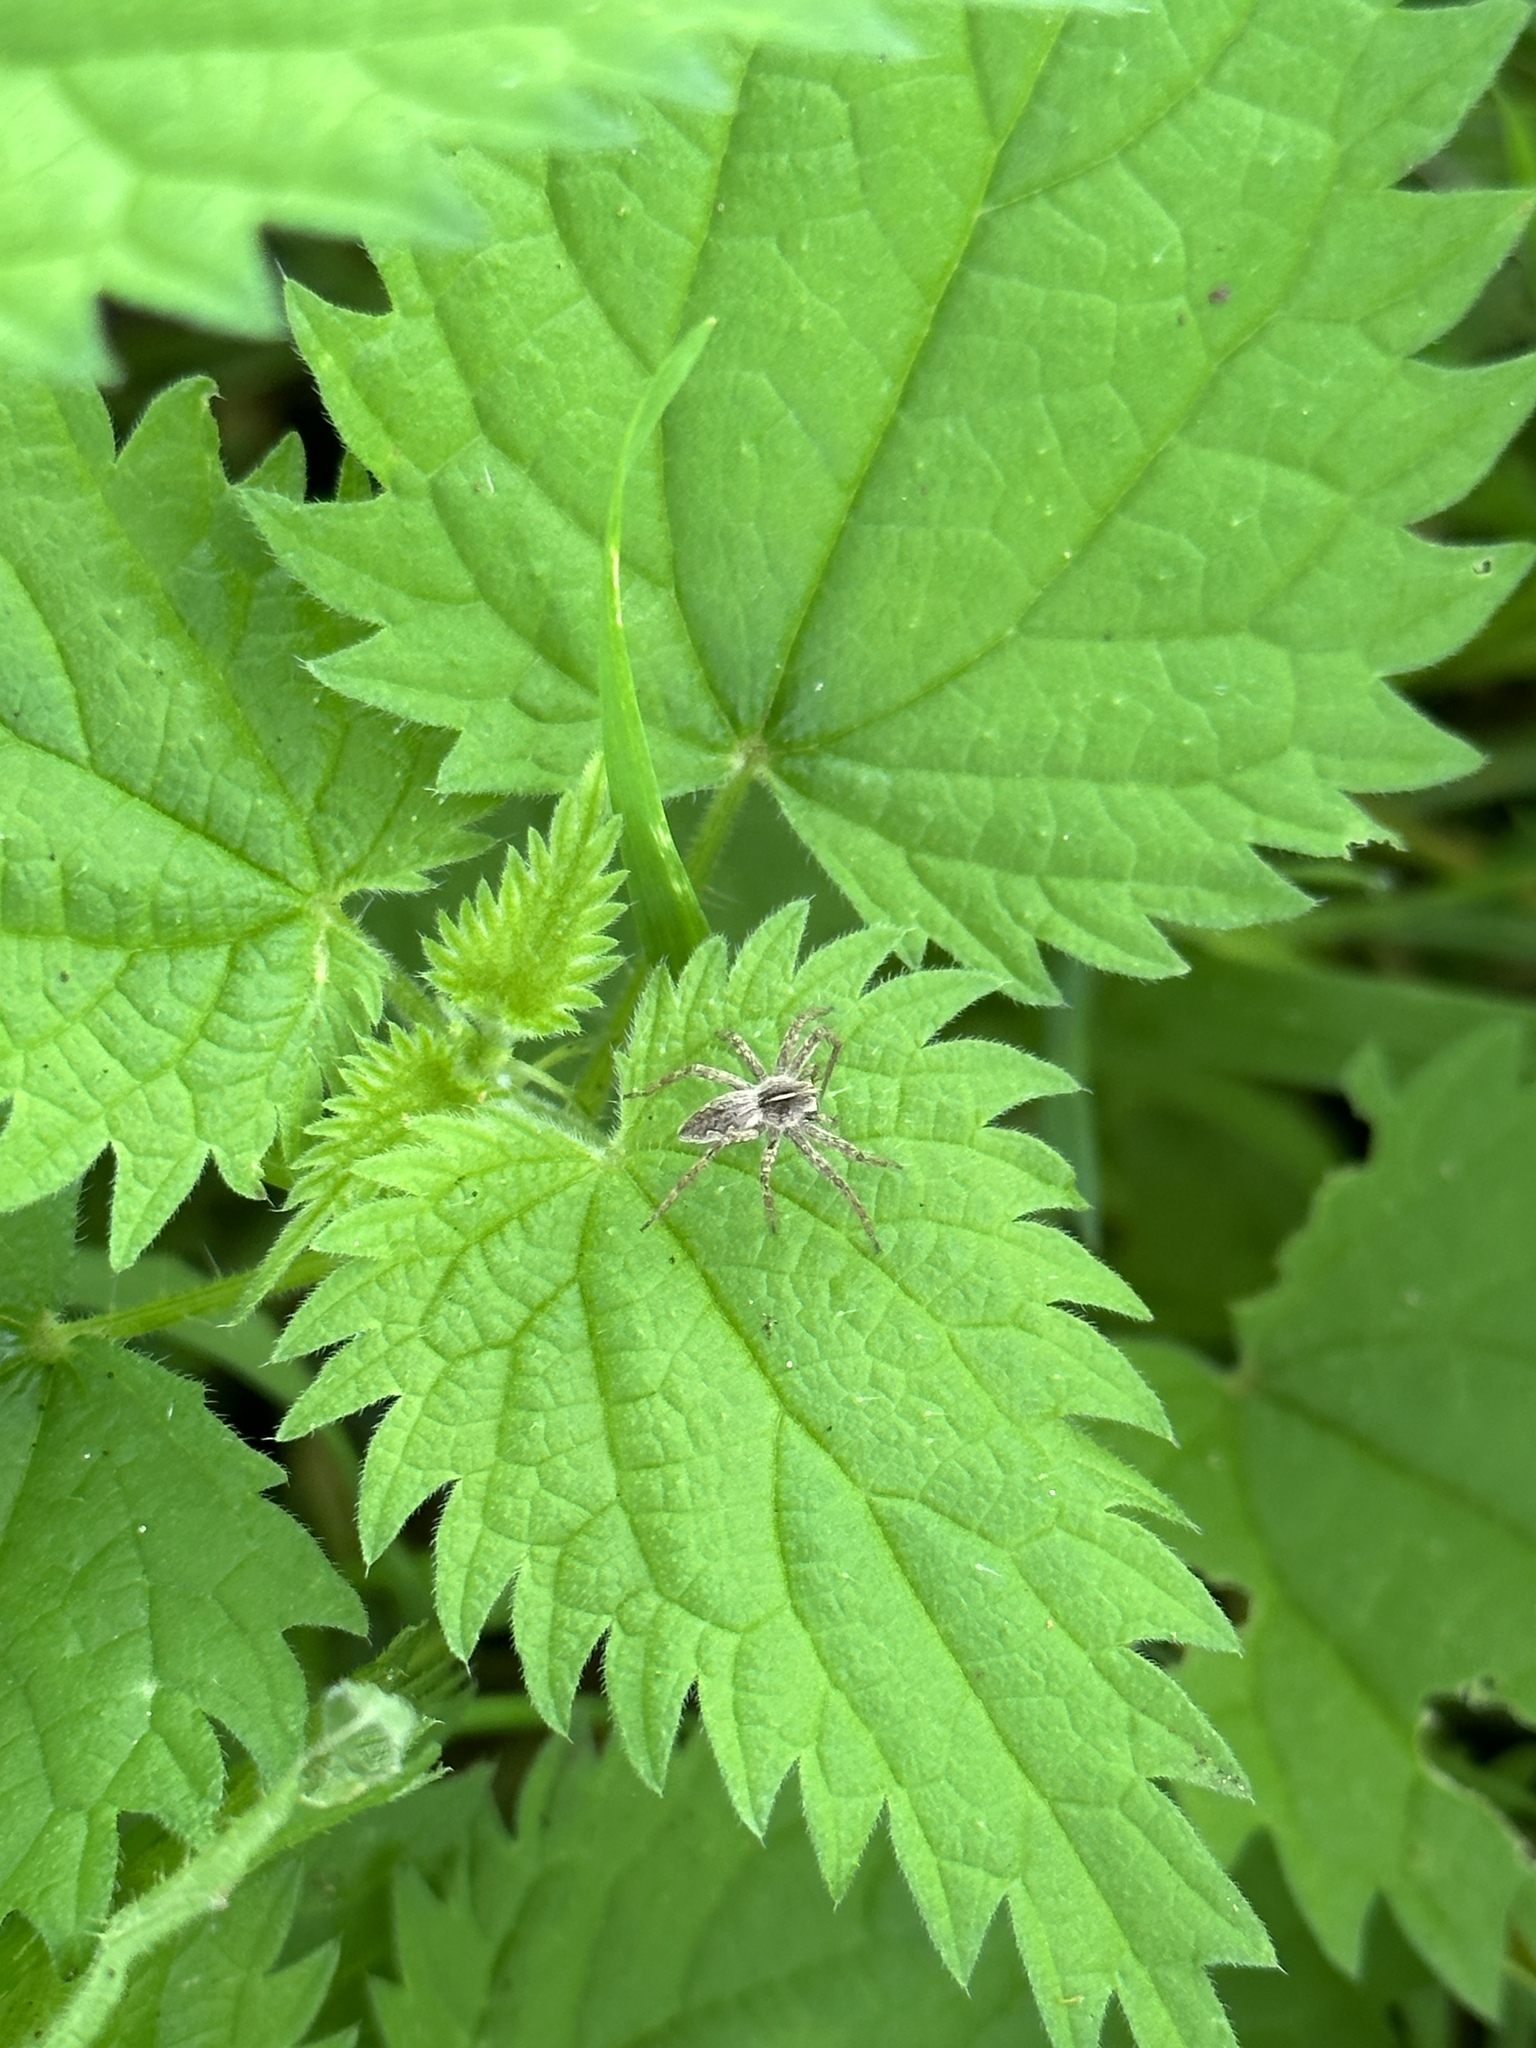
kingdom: Animalia
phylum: Arthropoda
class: Arachnida
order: Araneae
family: Pisauridae
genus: Pisaura
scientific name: Pisaura mirabilis
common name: Tent spider
